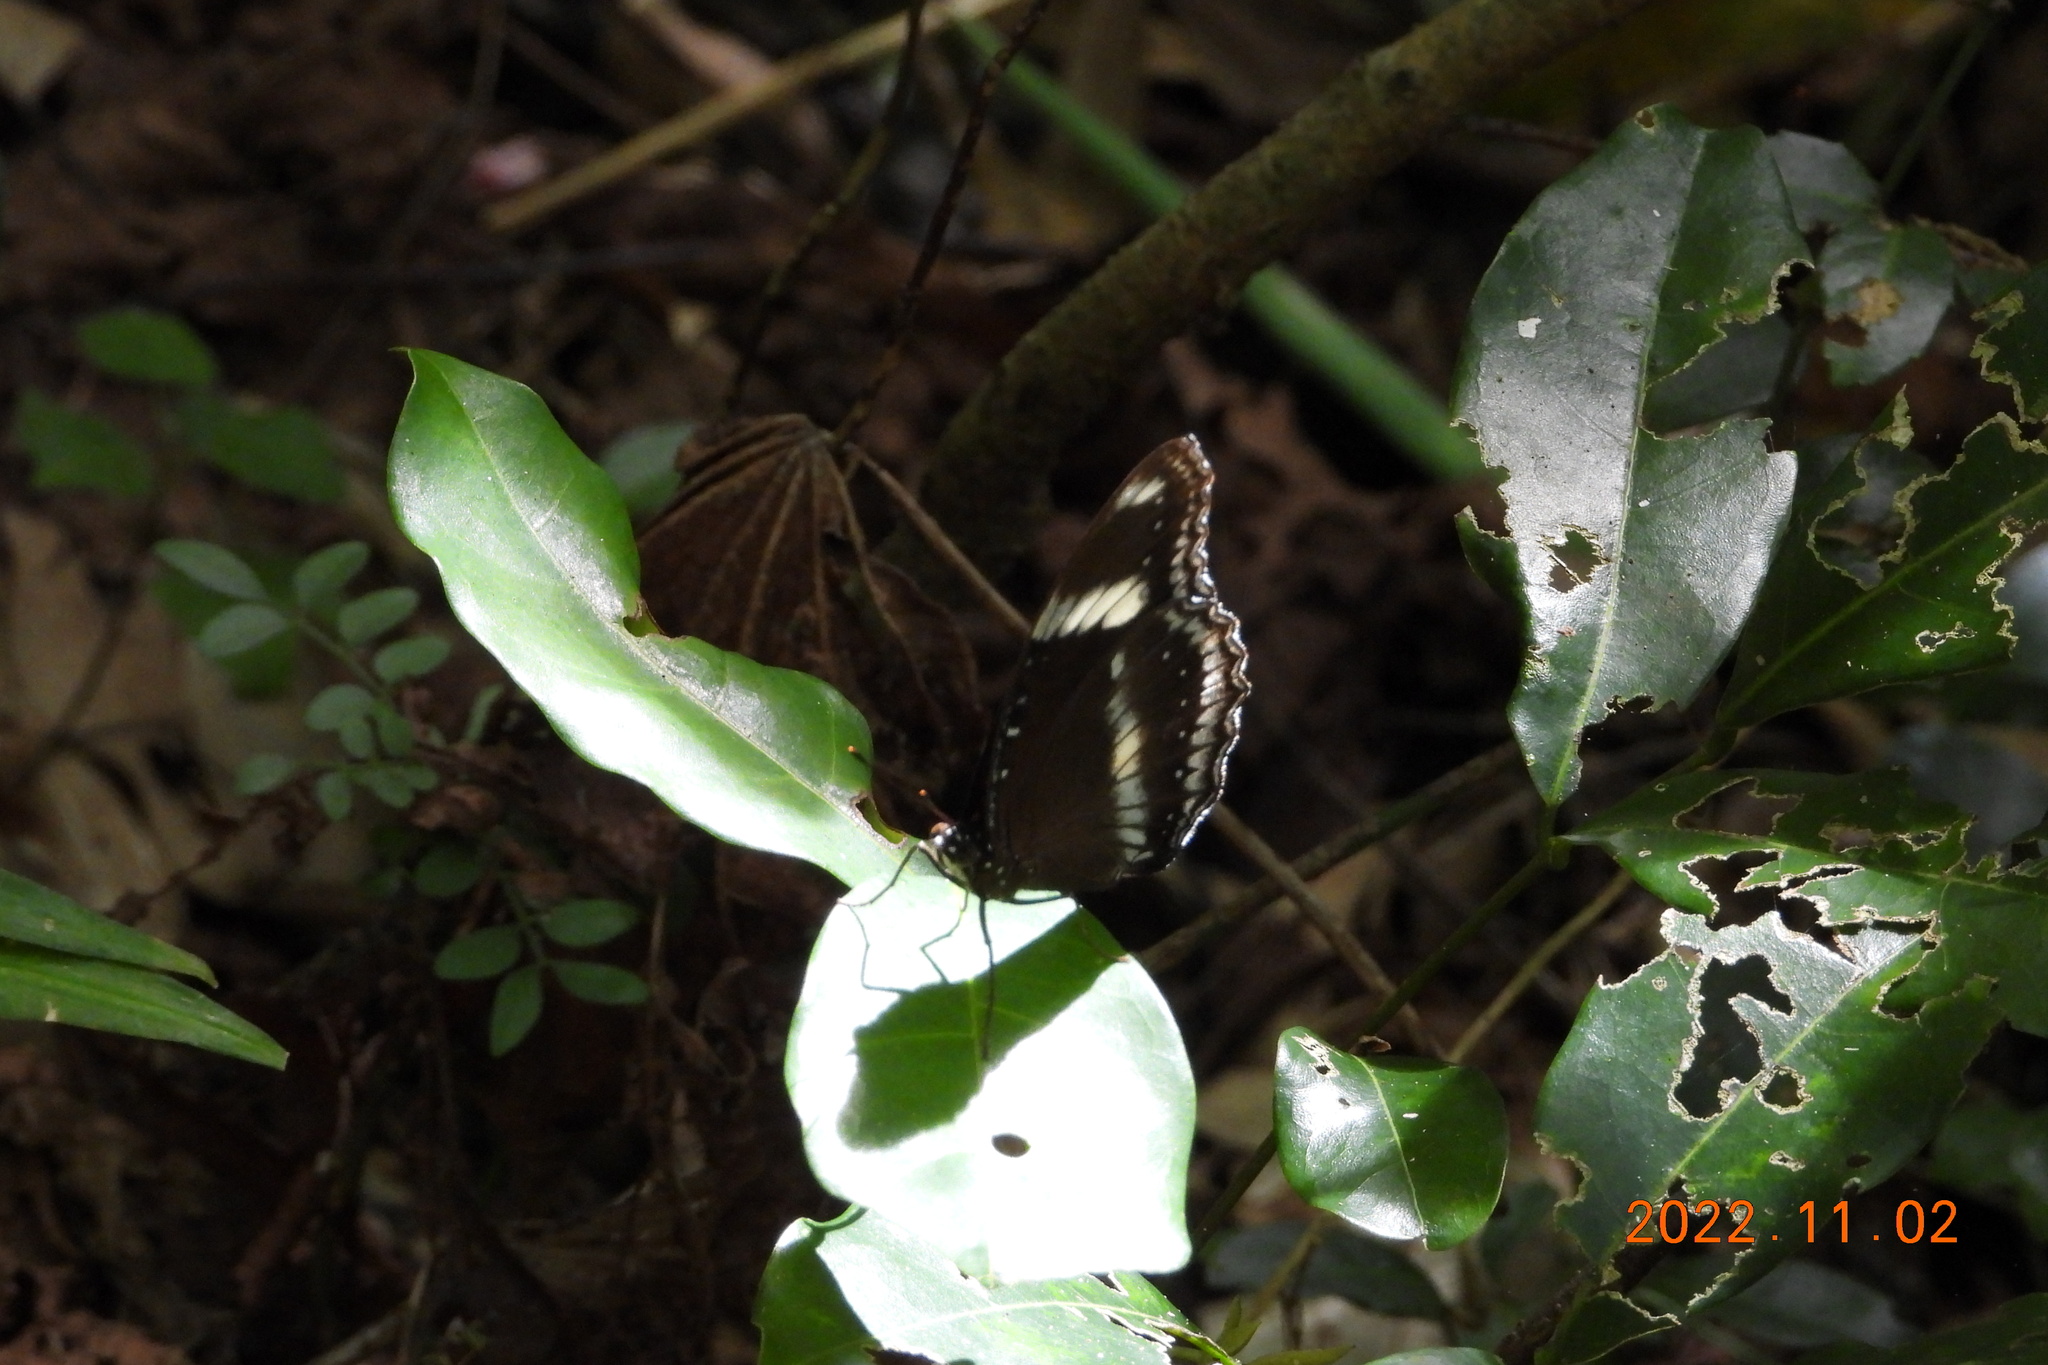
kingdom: Animalia
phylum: Arthropoda
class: Insecta
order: Lepidoptera
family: Nymphalidae
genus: Hypolimnas
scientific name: Hypolimnas bolina
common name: Great eggfly
